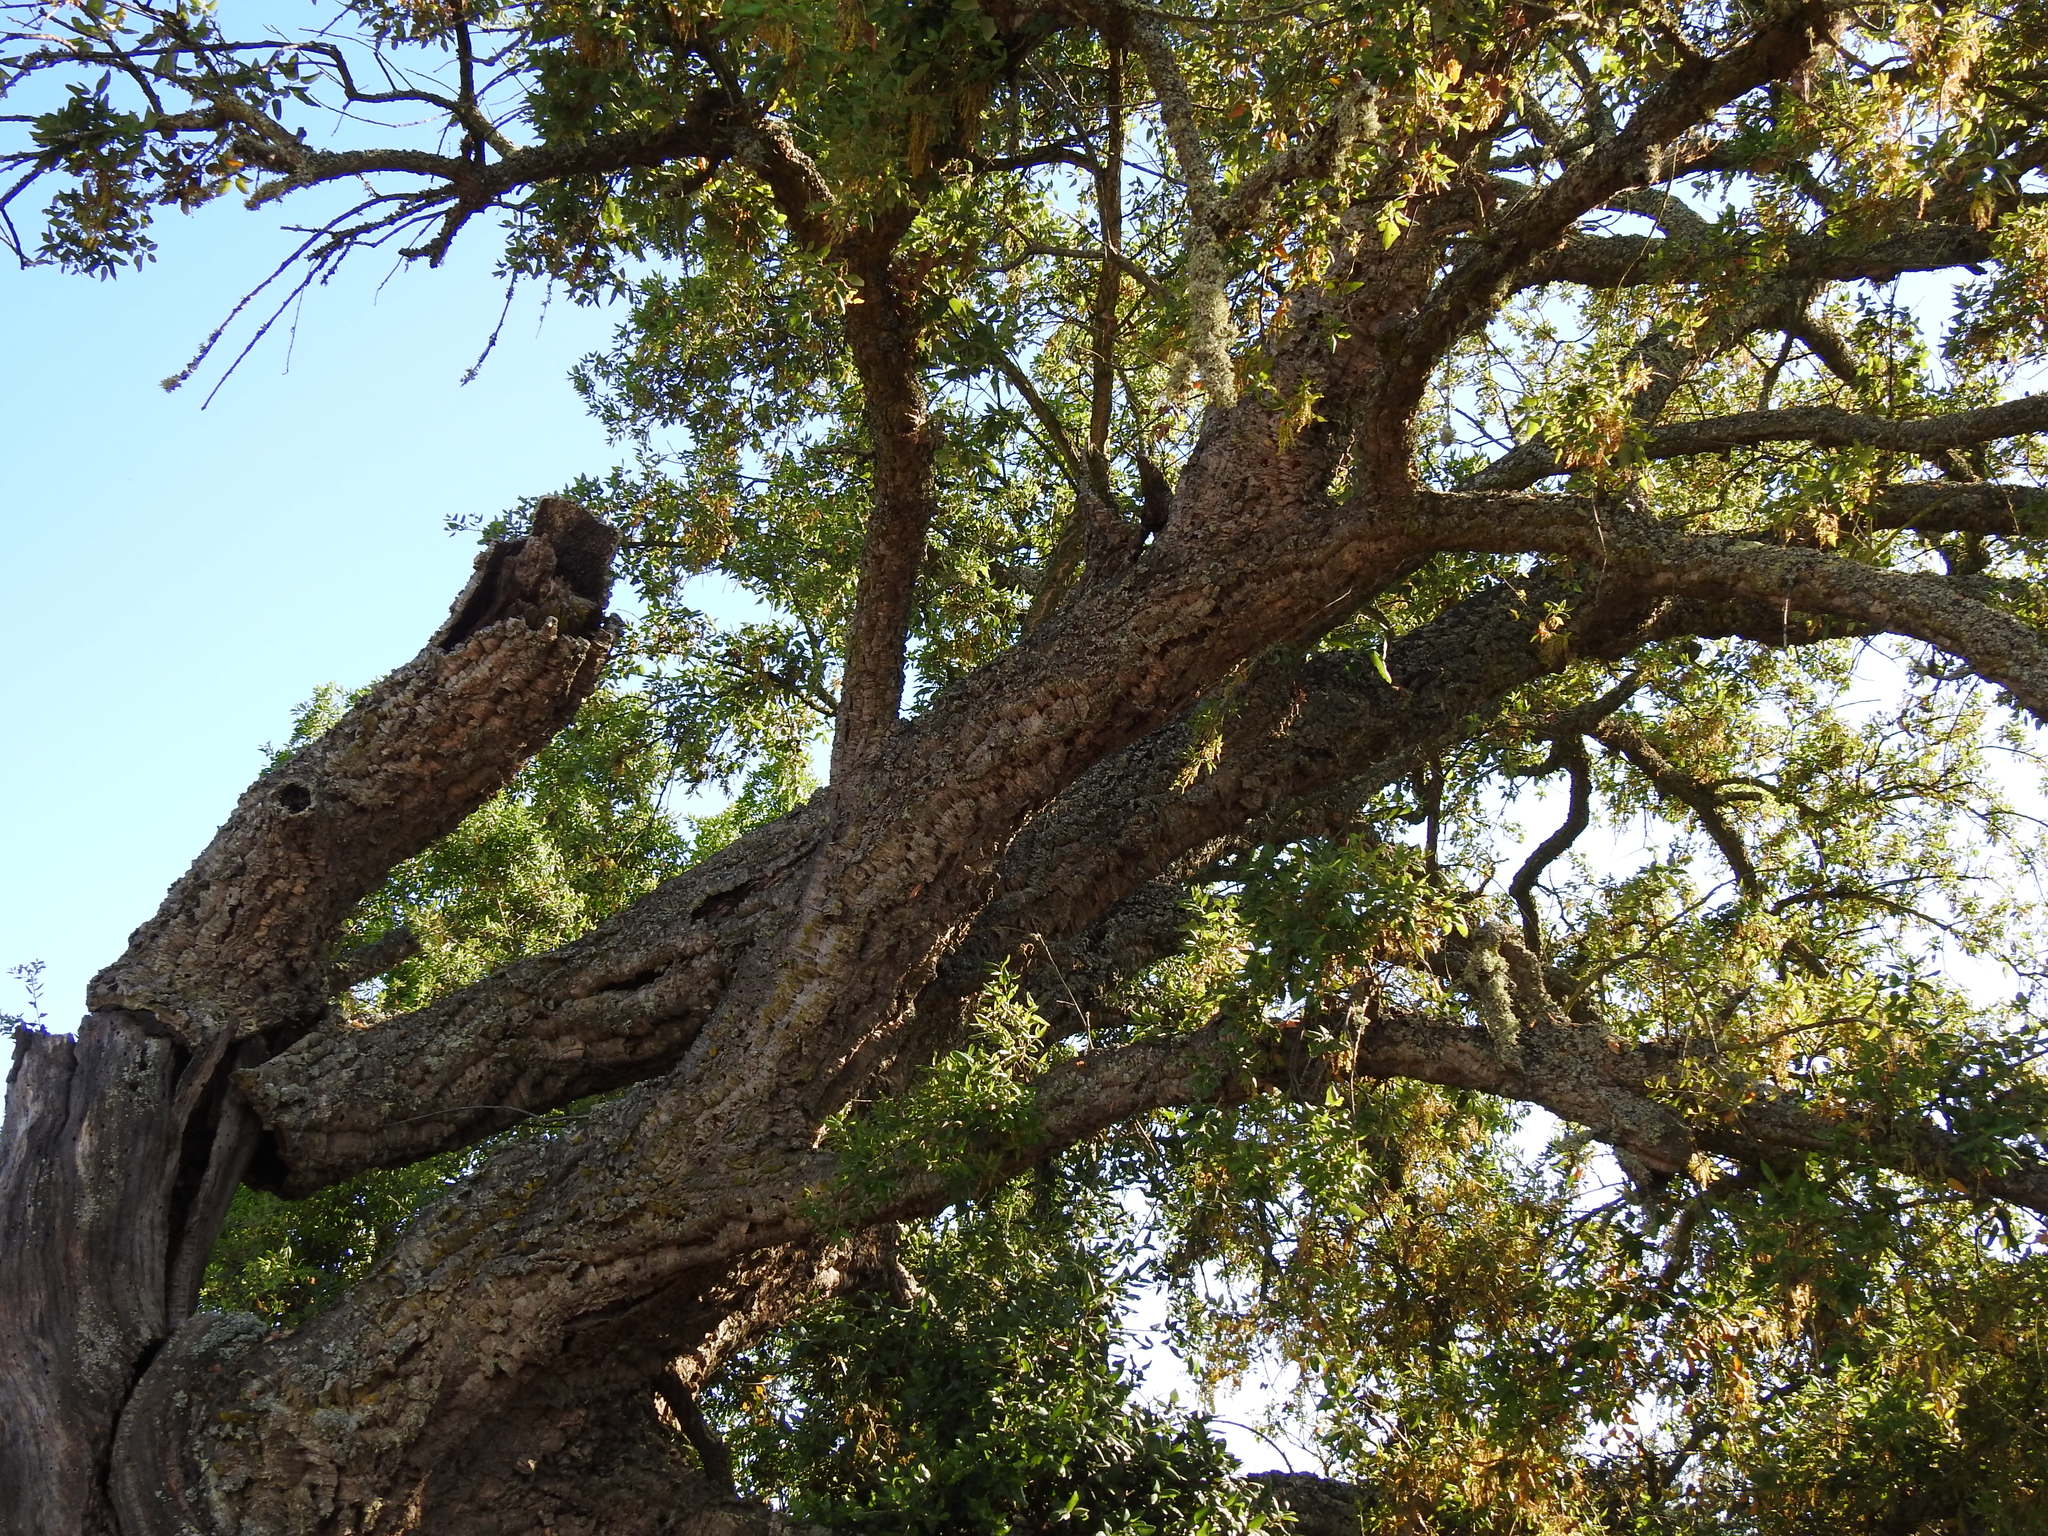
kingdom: Plantae
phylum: Tracheophyta
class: Magnoliopsida
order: Fagales
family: Fagaceae
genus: Quercus
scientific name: Quercus suber
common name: Cork oak
